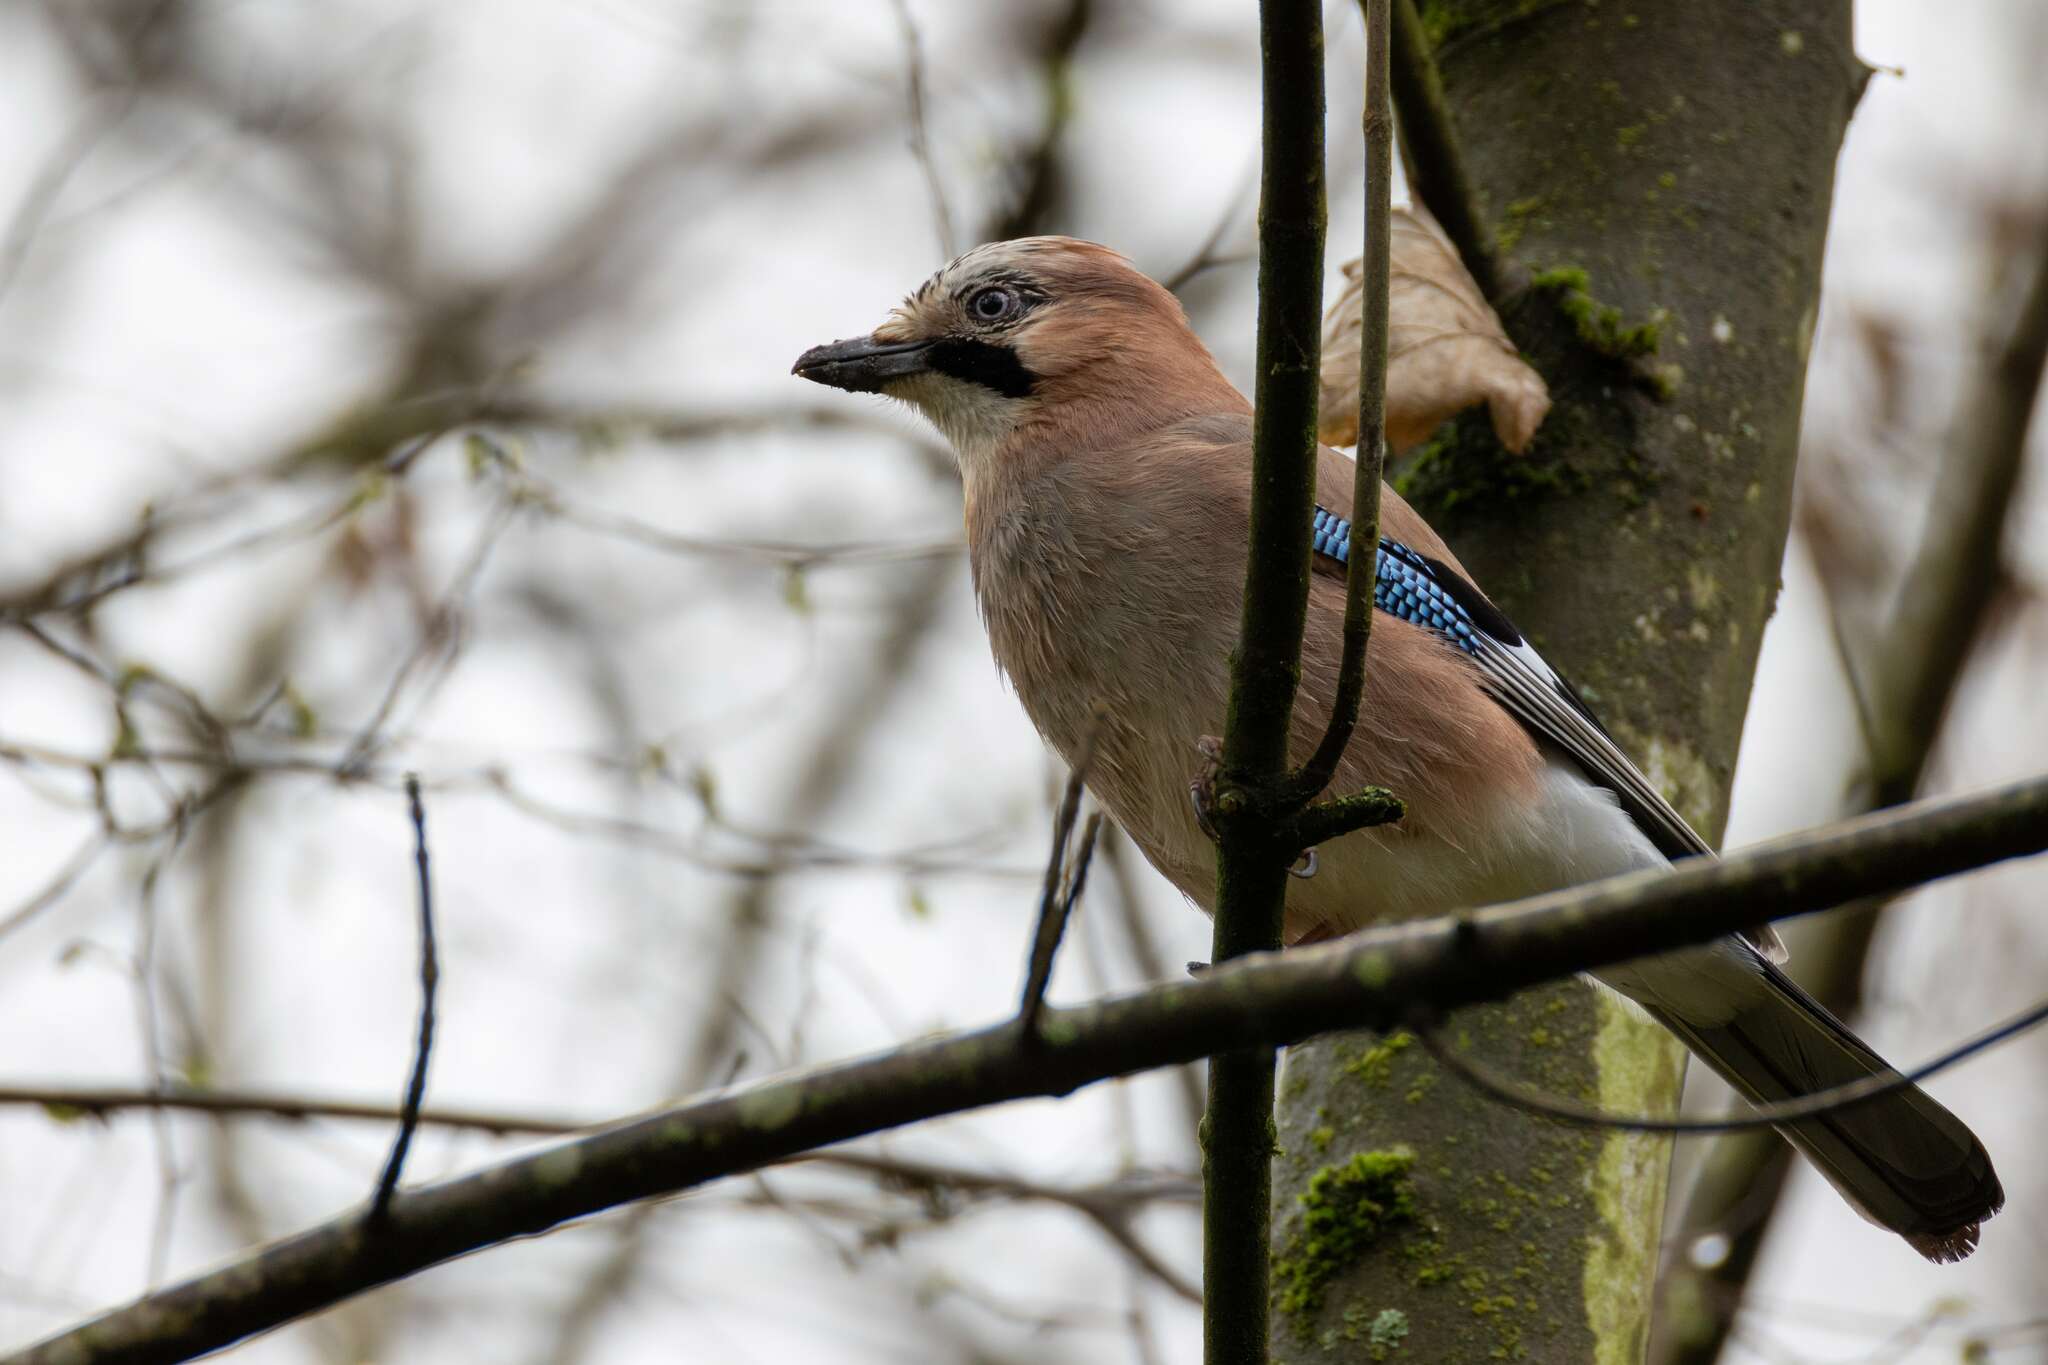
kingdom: Animalia
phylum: Chordata
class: Aves
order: Passeriformes
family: Corvidae
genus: Garrulus
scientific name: Garrulus glandarius
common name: Eurasian jay
